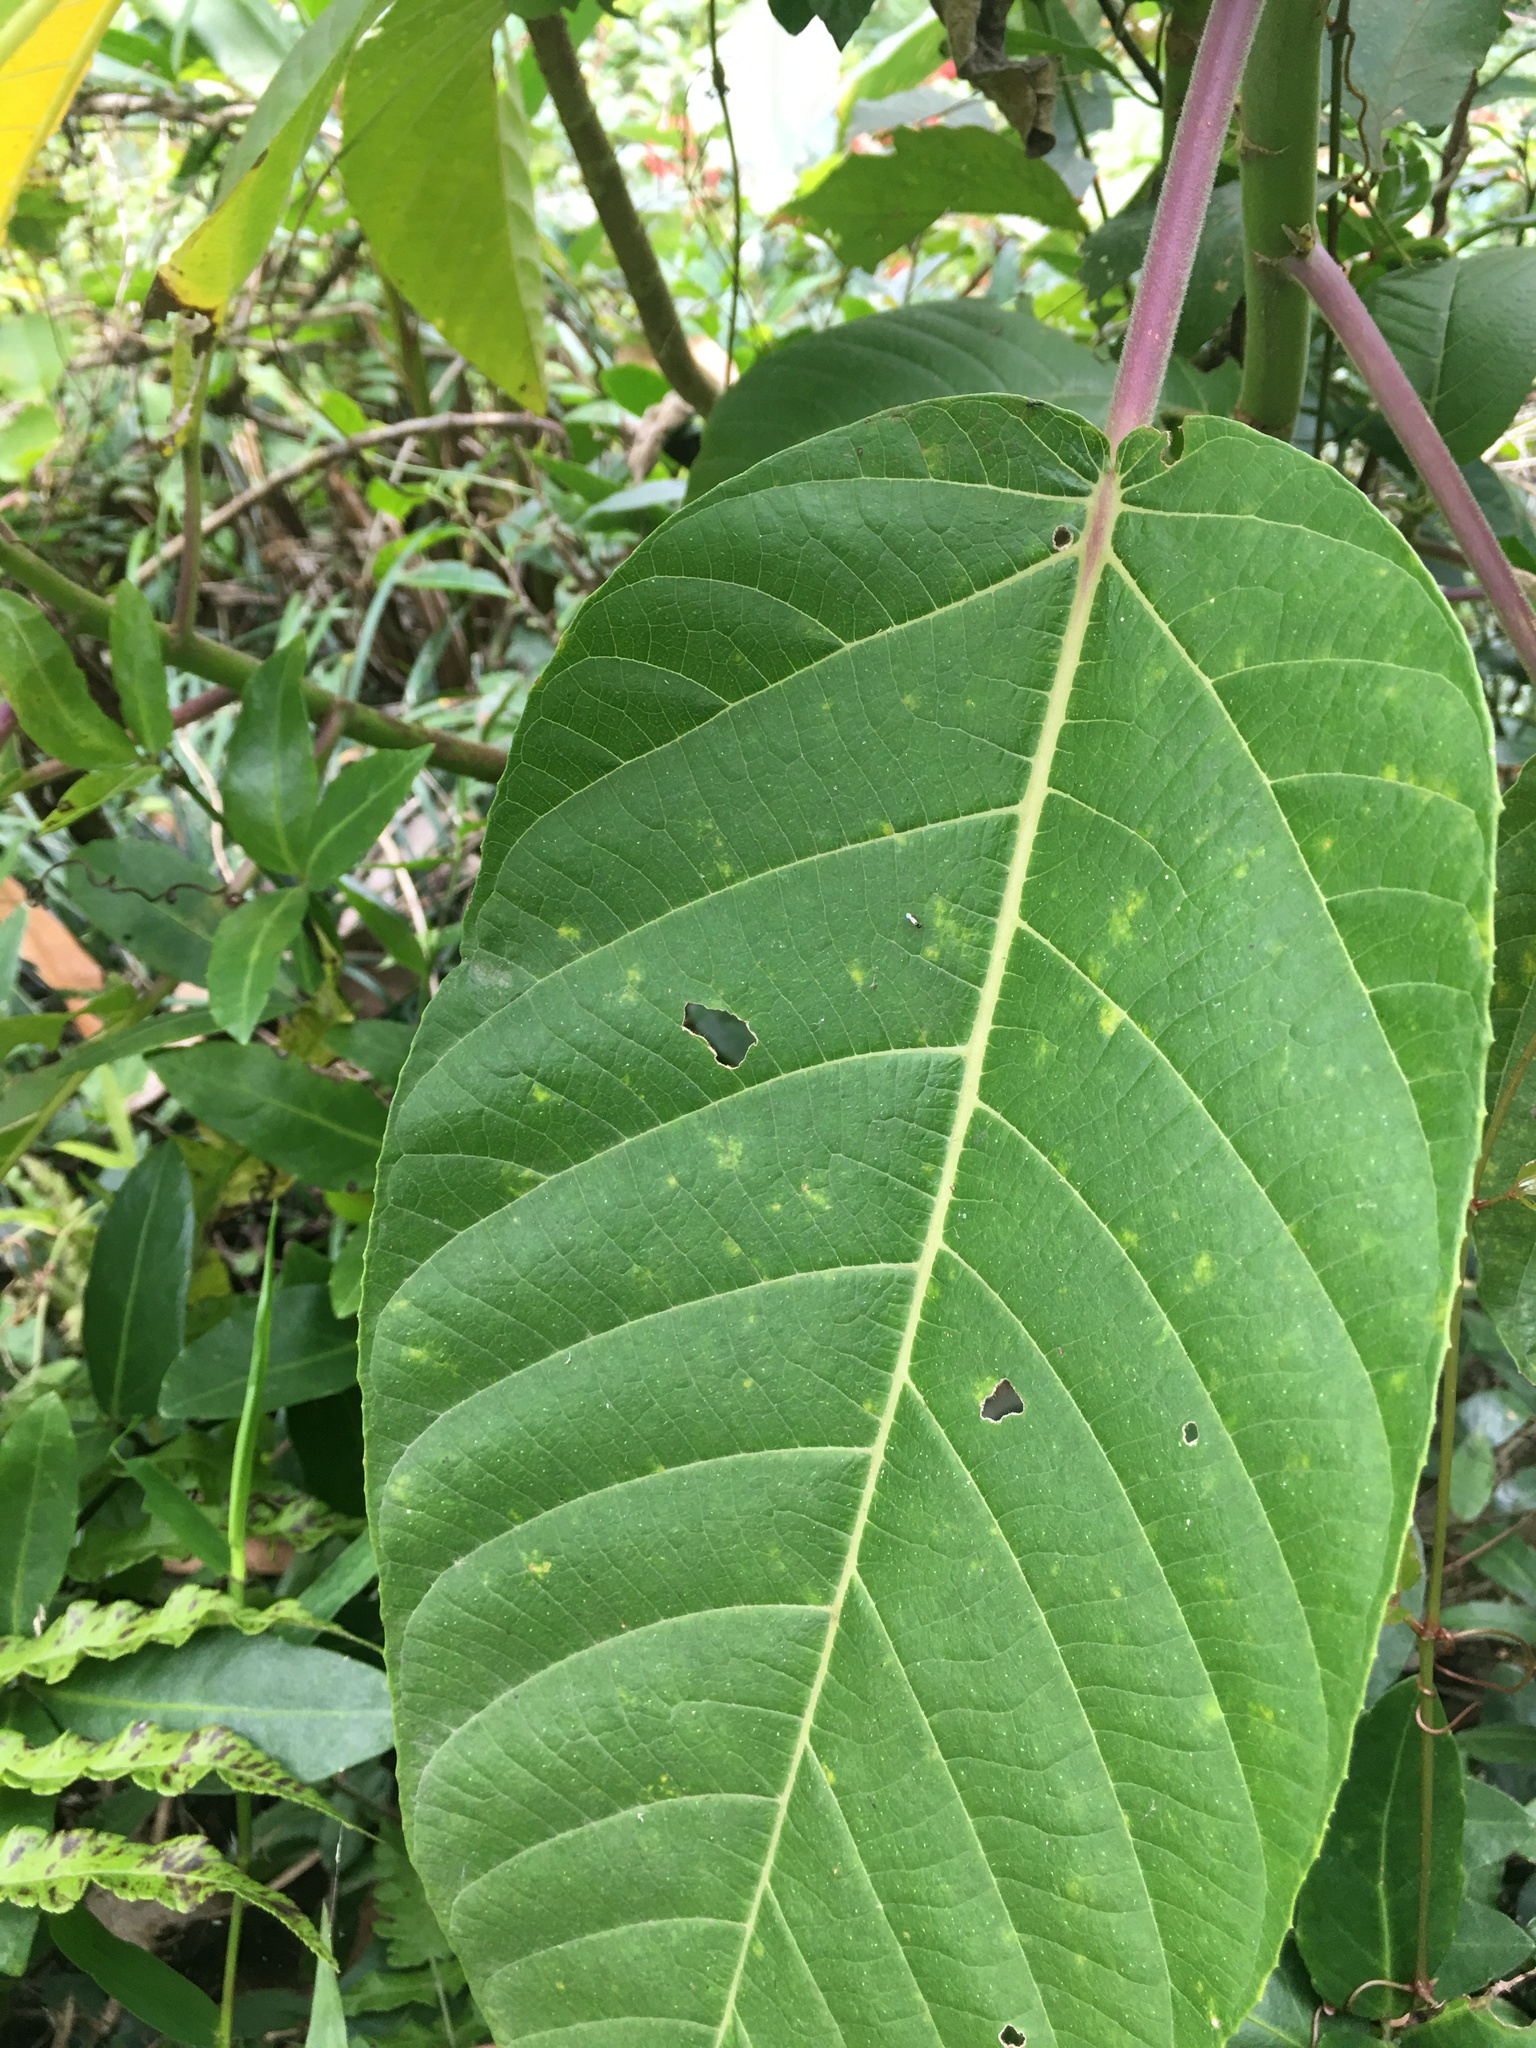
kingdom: Plantae
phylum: Tracheophyta
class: Magnoliopsida
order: Rosales
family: Urticaceae
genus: Dendrocnide
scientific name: Dendrocnide meyeniana
